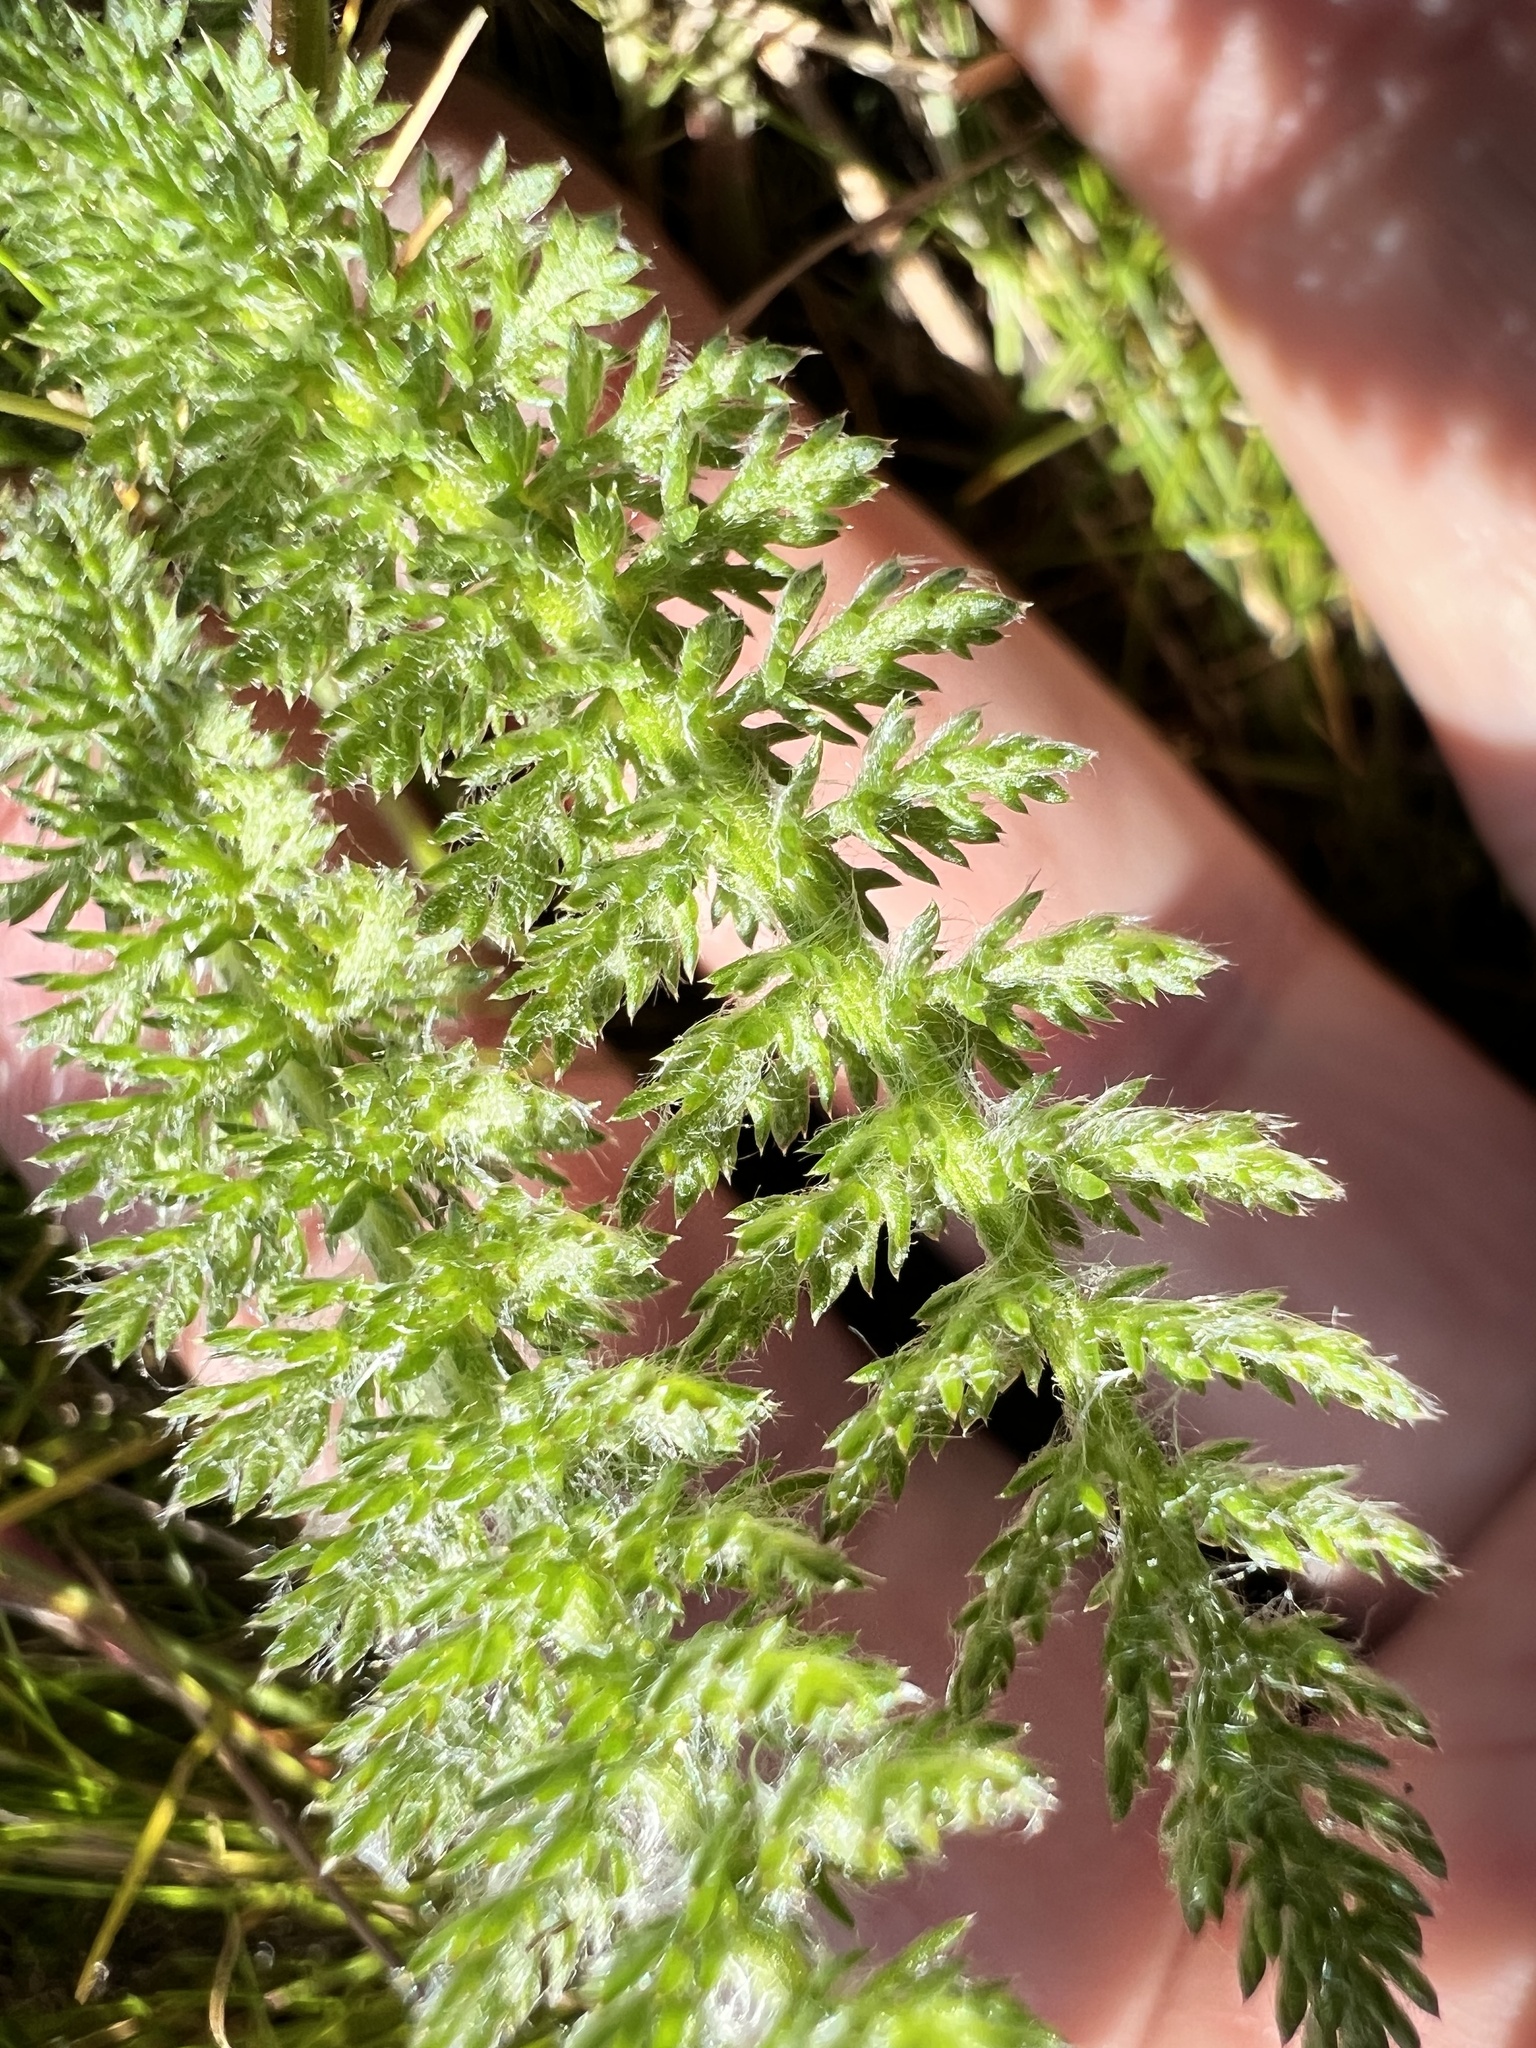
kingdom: Plantae
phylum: Tracheophyta
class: Magnoliopsida
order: Asterales
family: Asteraceae
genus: Achillea
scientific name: Achillea millefolium
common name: Yarrow
